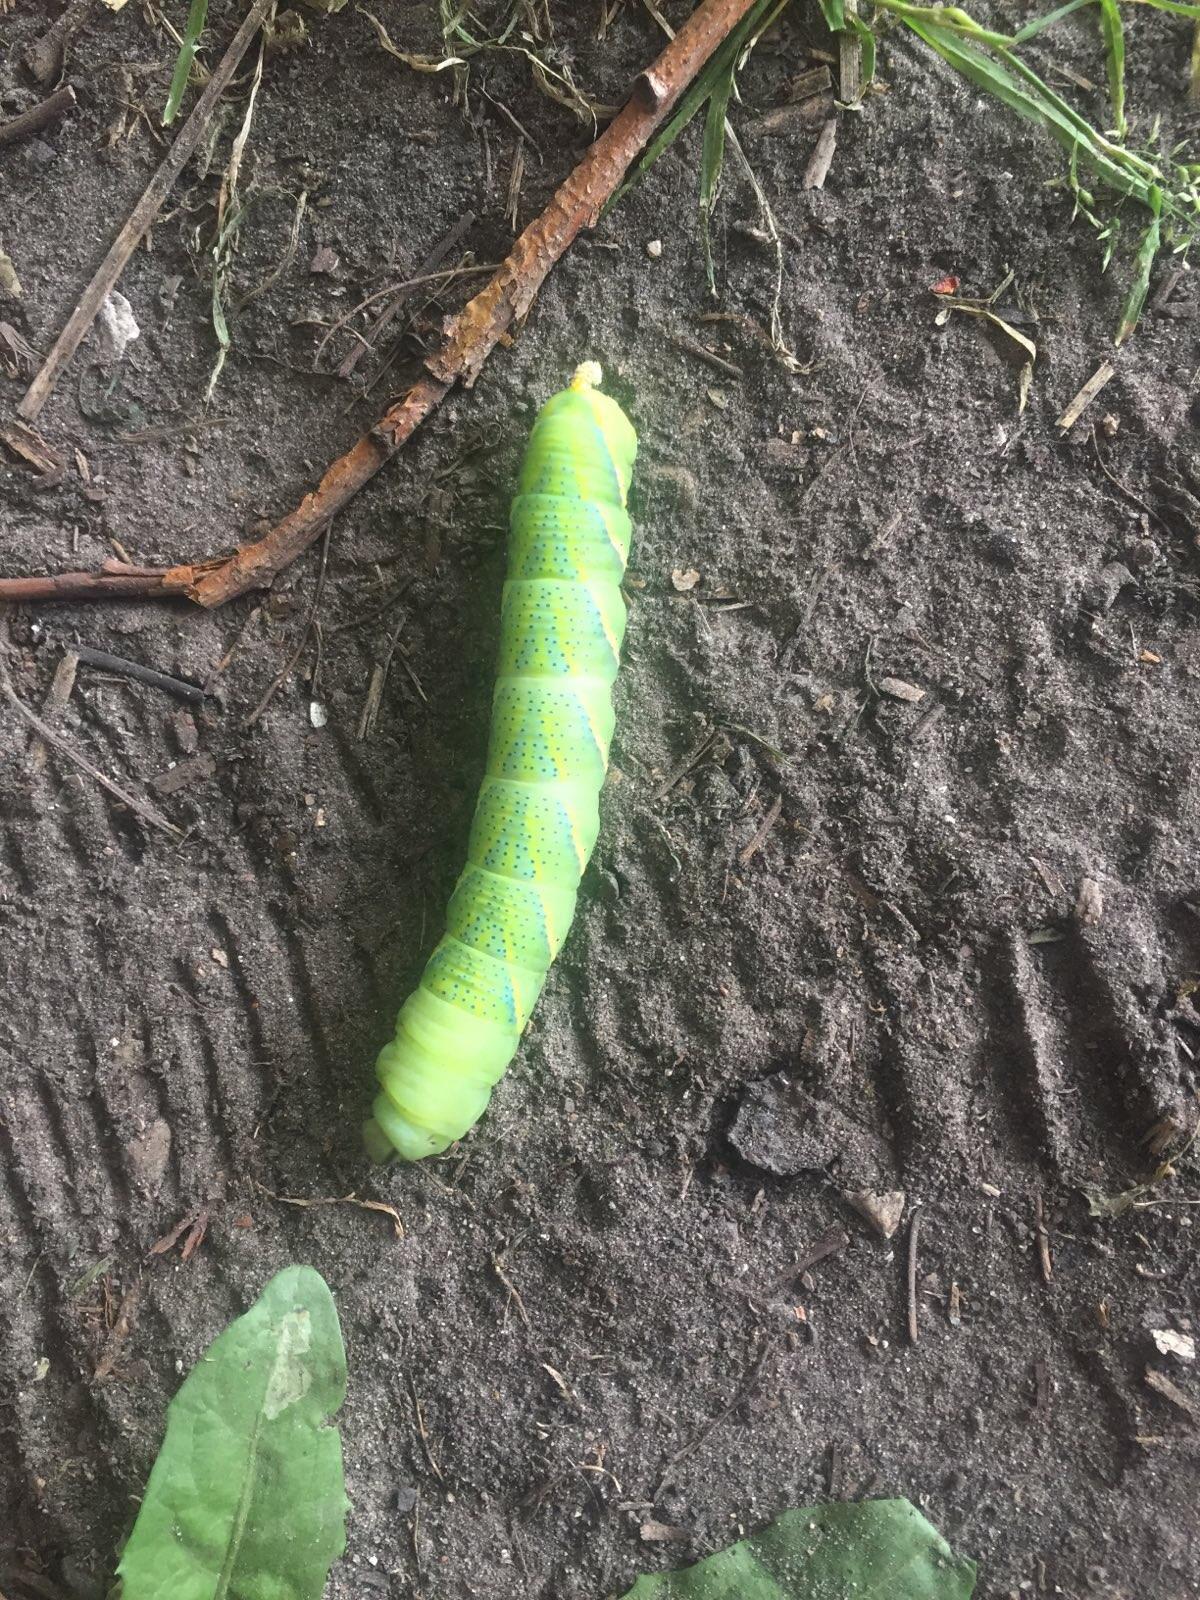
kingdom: Animalia
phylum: Arthropoda
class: Insecta
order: Lepidoptera
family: Sphingidae
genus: Acherontia
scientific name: Acherontia atropos
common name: Death's-head hawk moth
